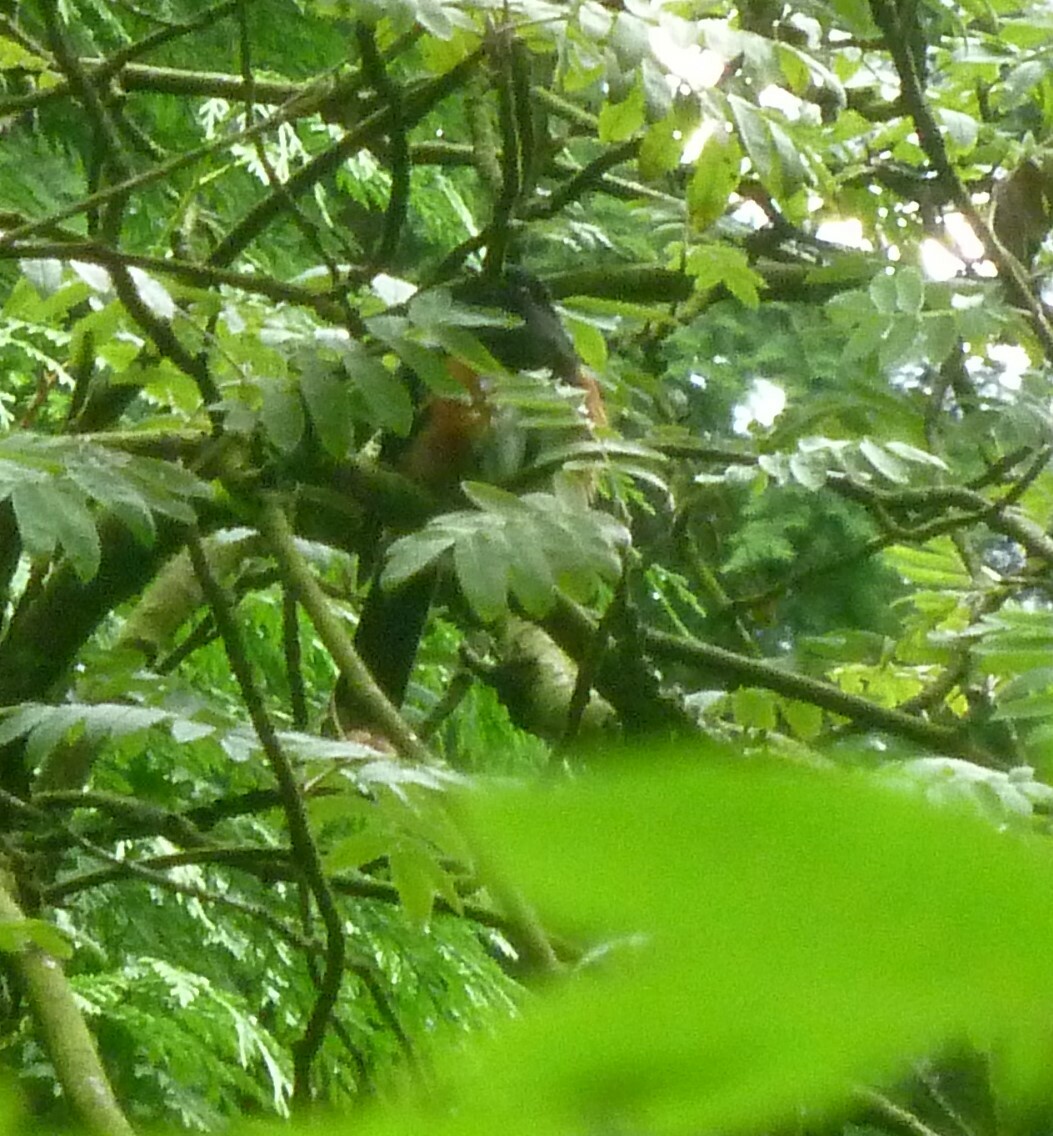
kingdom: Animalia
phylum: Chordata
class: Aves
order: Passeriformes
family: Passerellidae
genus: Pipilo
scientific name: Pipilo maculatus
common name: Spotted towhee
